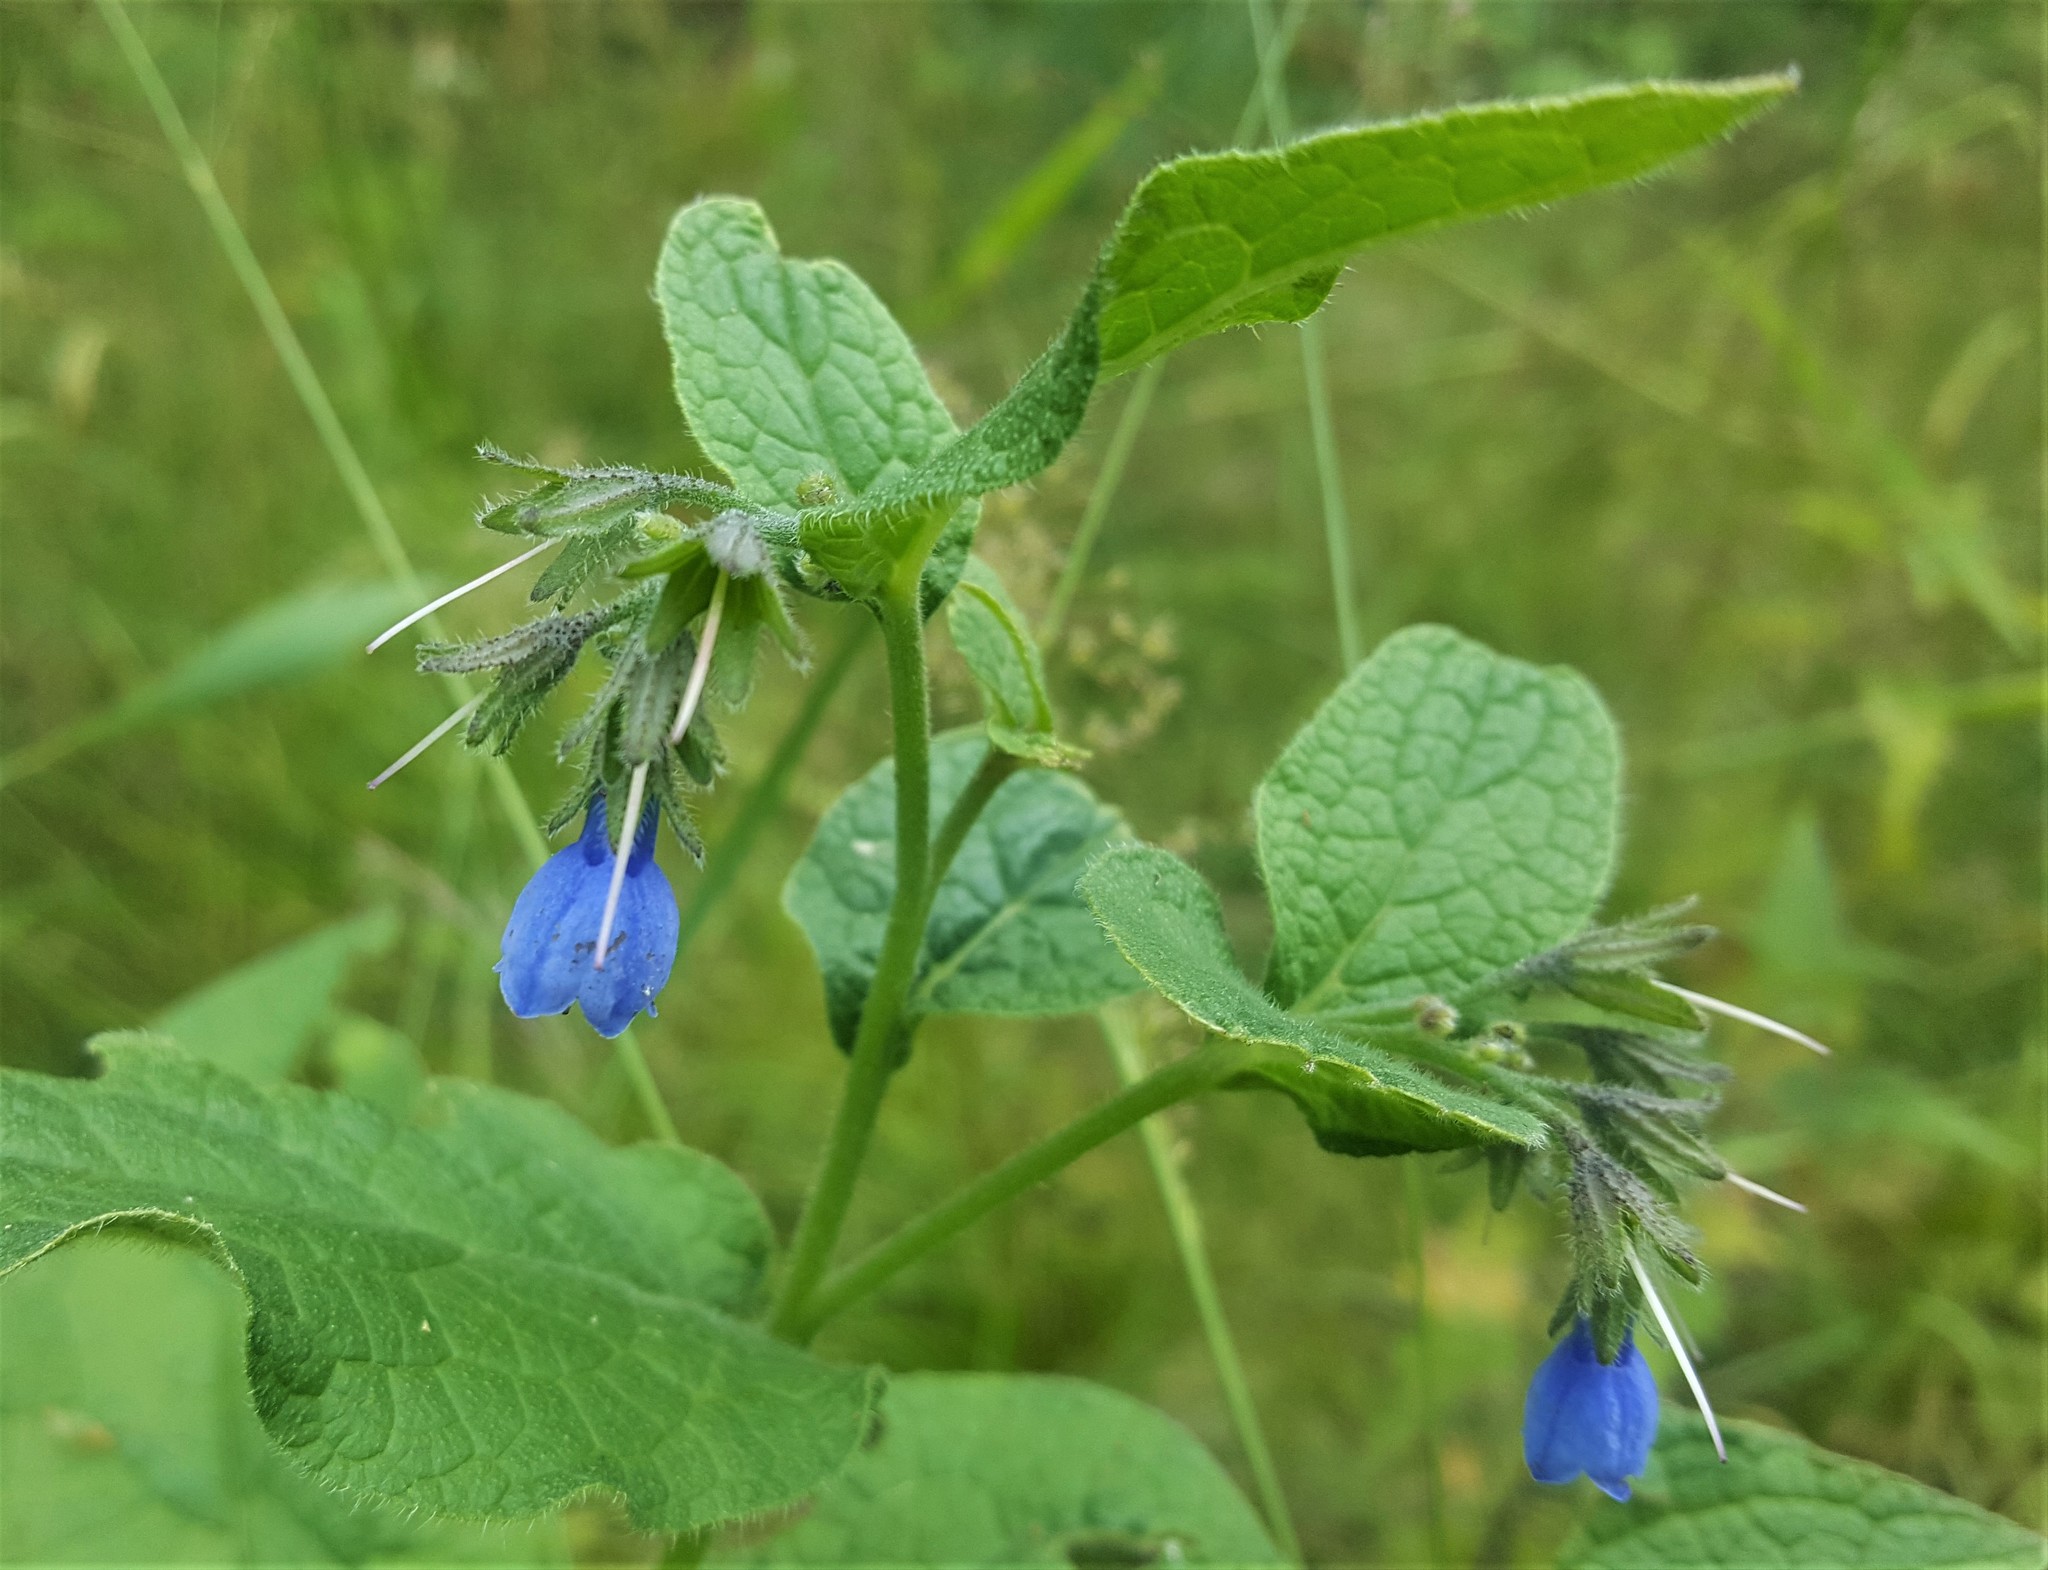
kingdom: Plantae
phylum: Tracheophyta
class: Magnoliopsida
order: Boraginales
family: Boraginaceae
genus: Symphytum
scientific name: Symphytum caucasicum
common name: Caucasian comfrey
